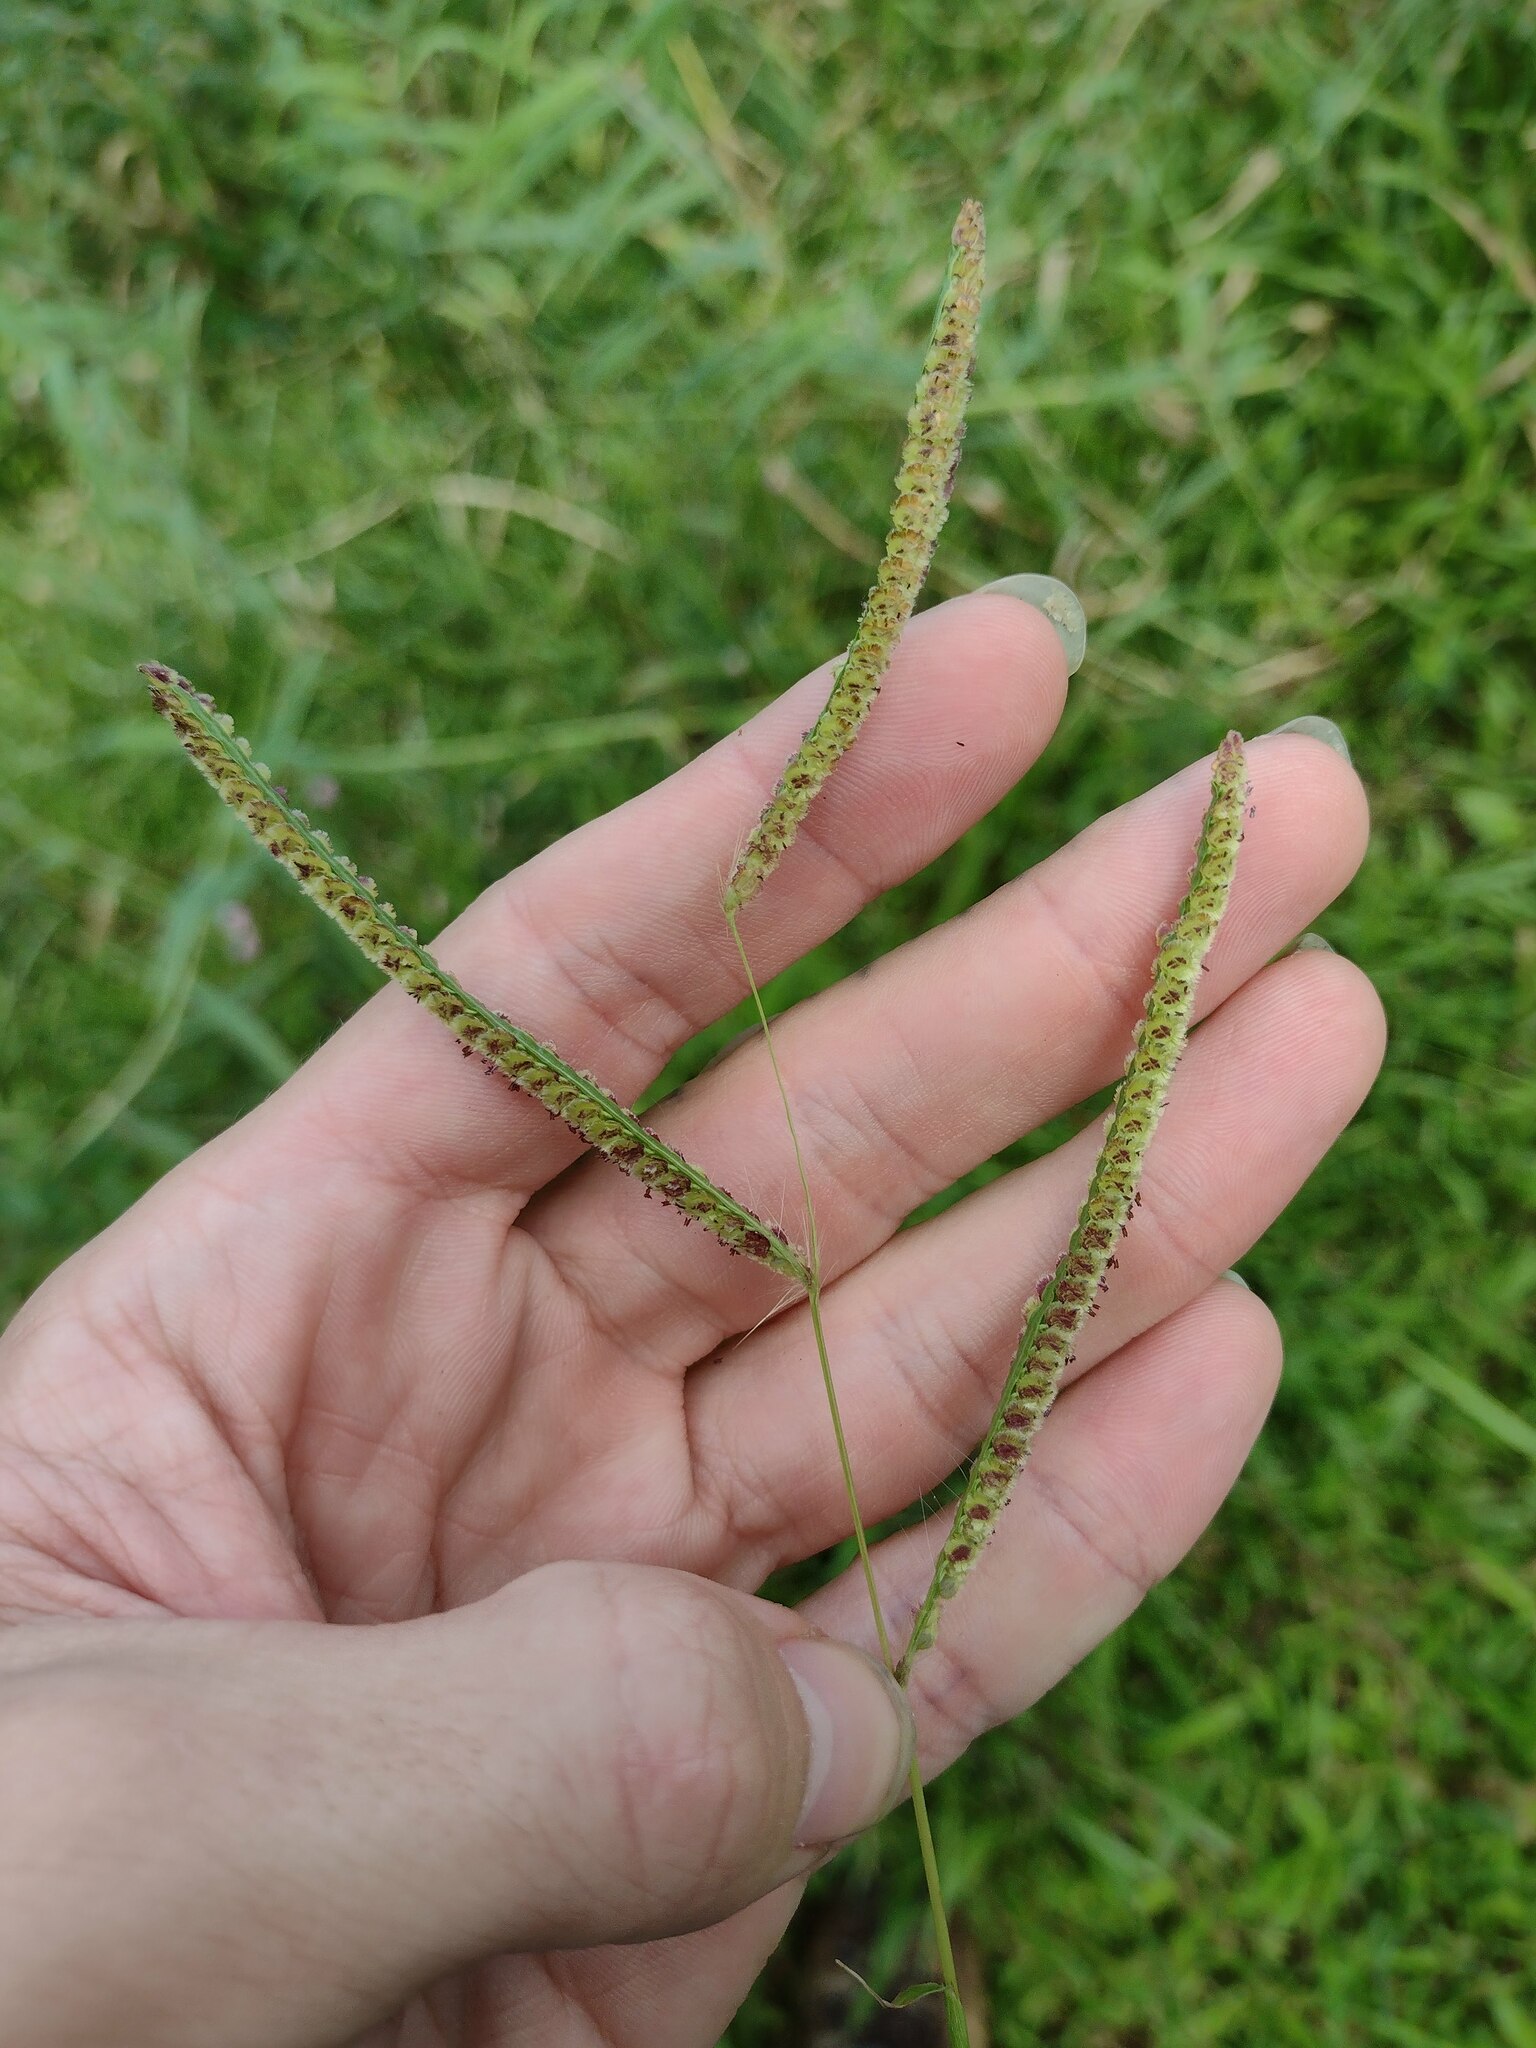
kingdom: Plantae
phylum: Tracheophyta
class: Liliopsida
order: Poales
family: Poaceae
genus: Paspalum
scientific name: Paspalum fimbriatum
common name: Panama crowngrass
